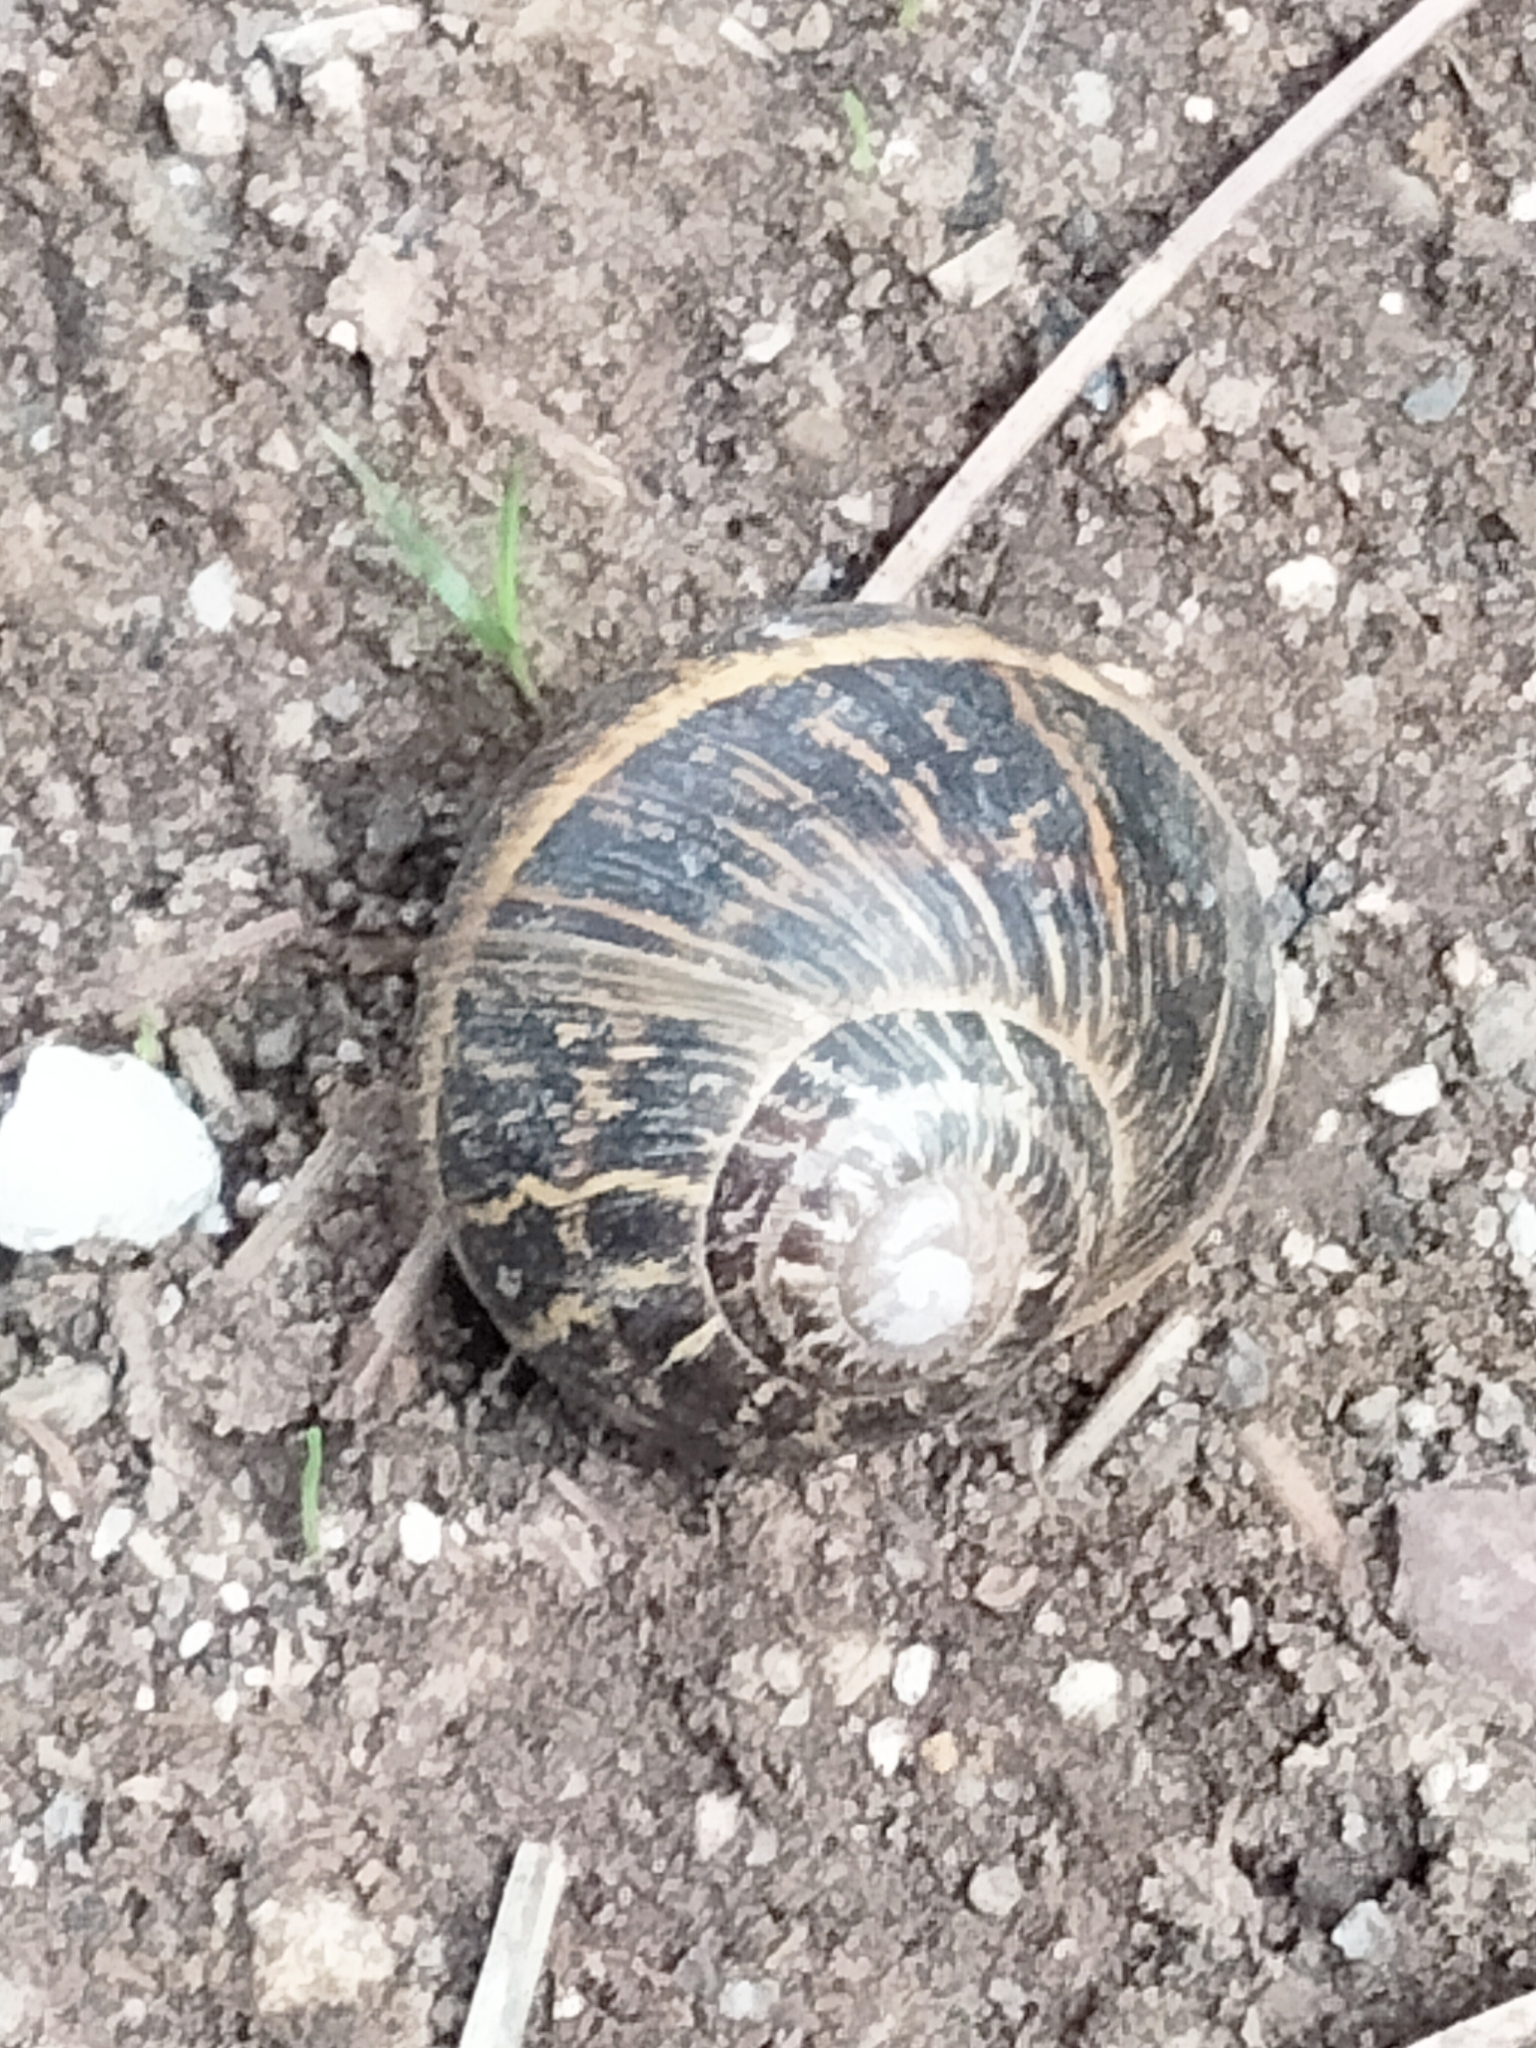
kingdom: Animalia
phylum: Mollusca
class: Gastropoda
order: Stylommatophora
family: Helicidae
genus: Cornu
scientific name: Cornu aspersum
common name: Brown garden snail
